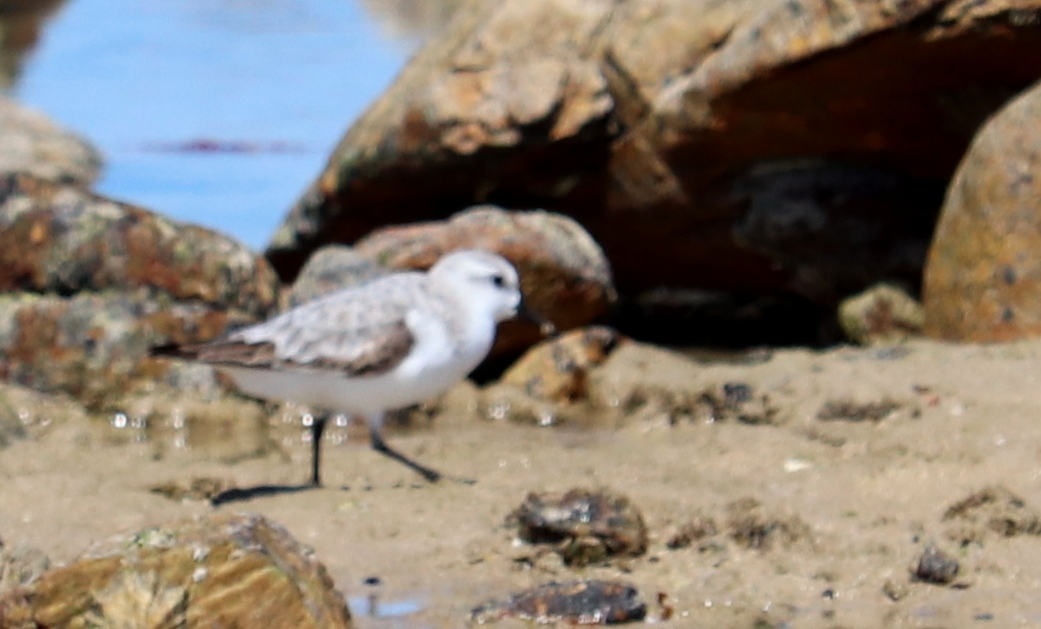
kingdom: Animalia
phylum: Chordata
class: Aves
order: Charadriiformes
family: Scolopacidae
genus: Calidris
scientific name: Calidris alba
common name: Sanderling
